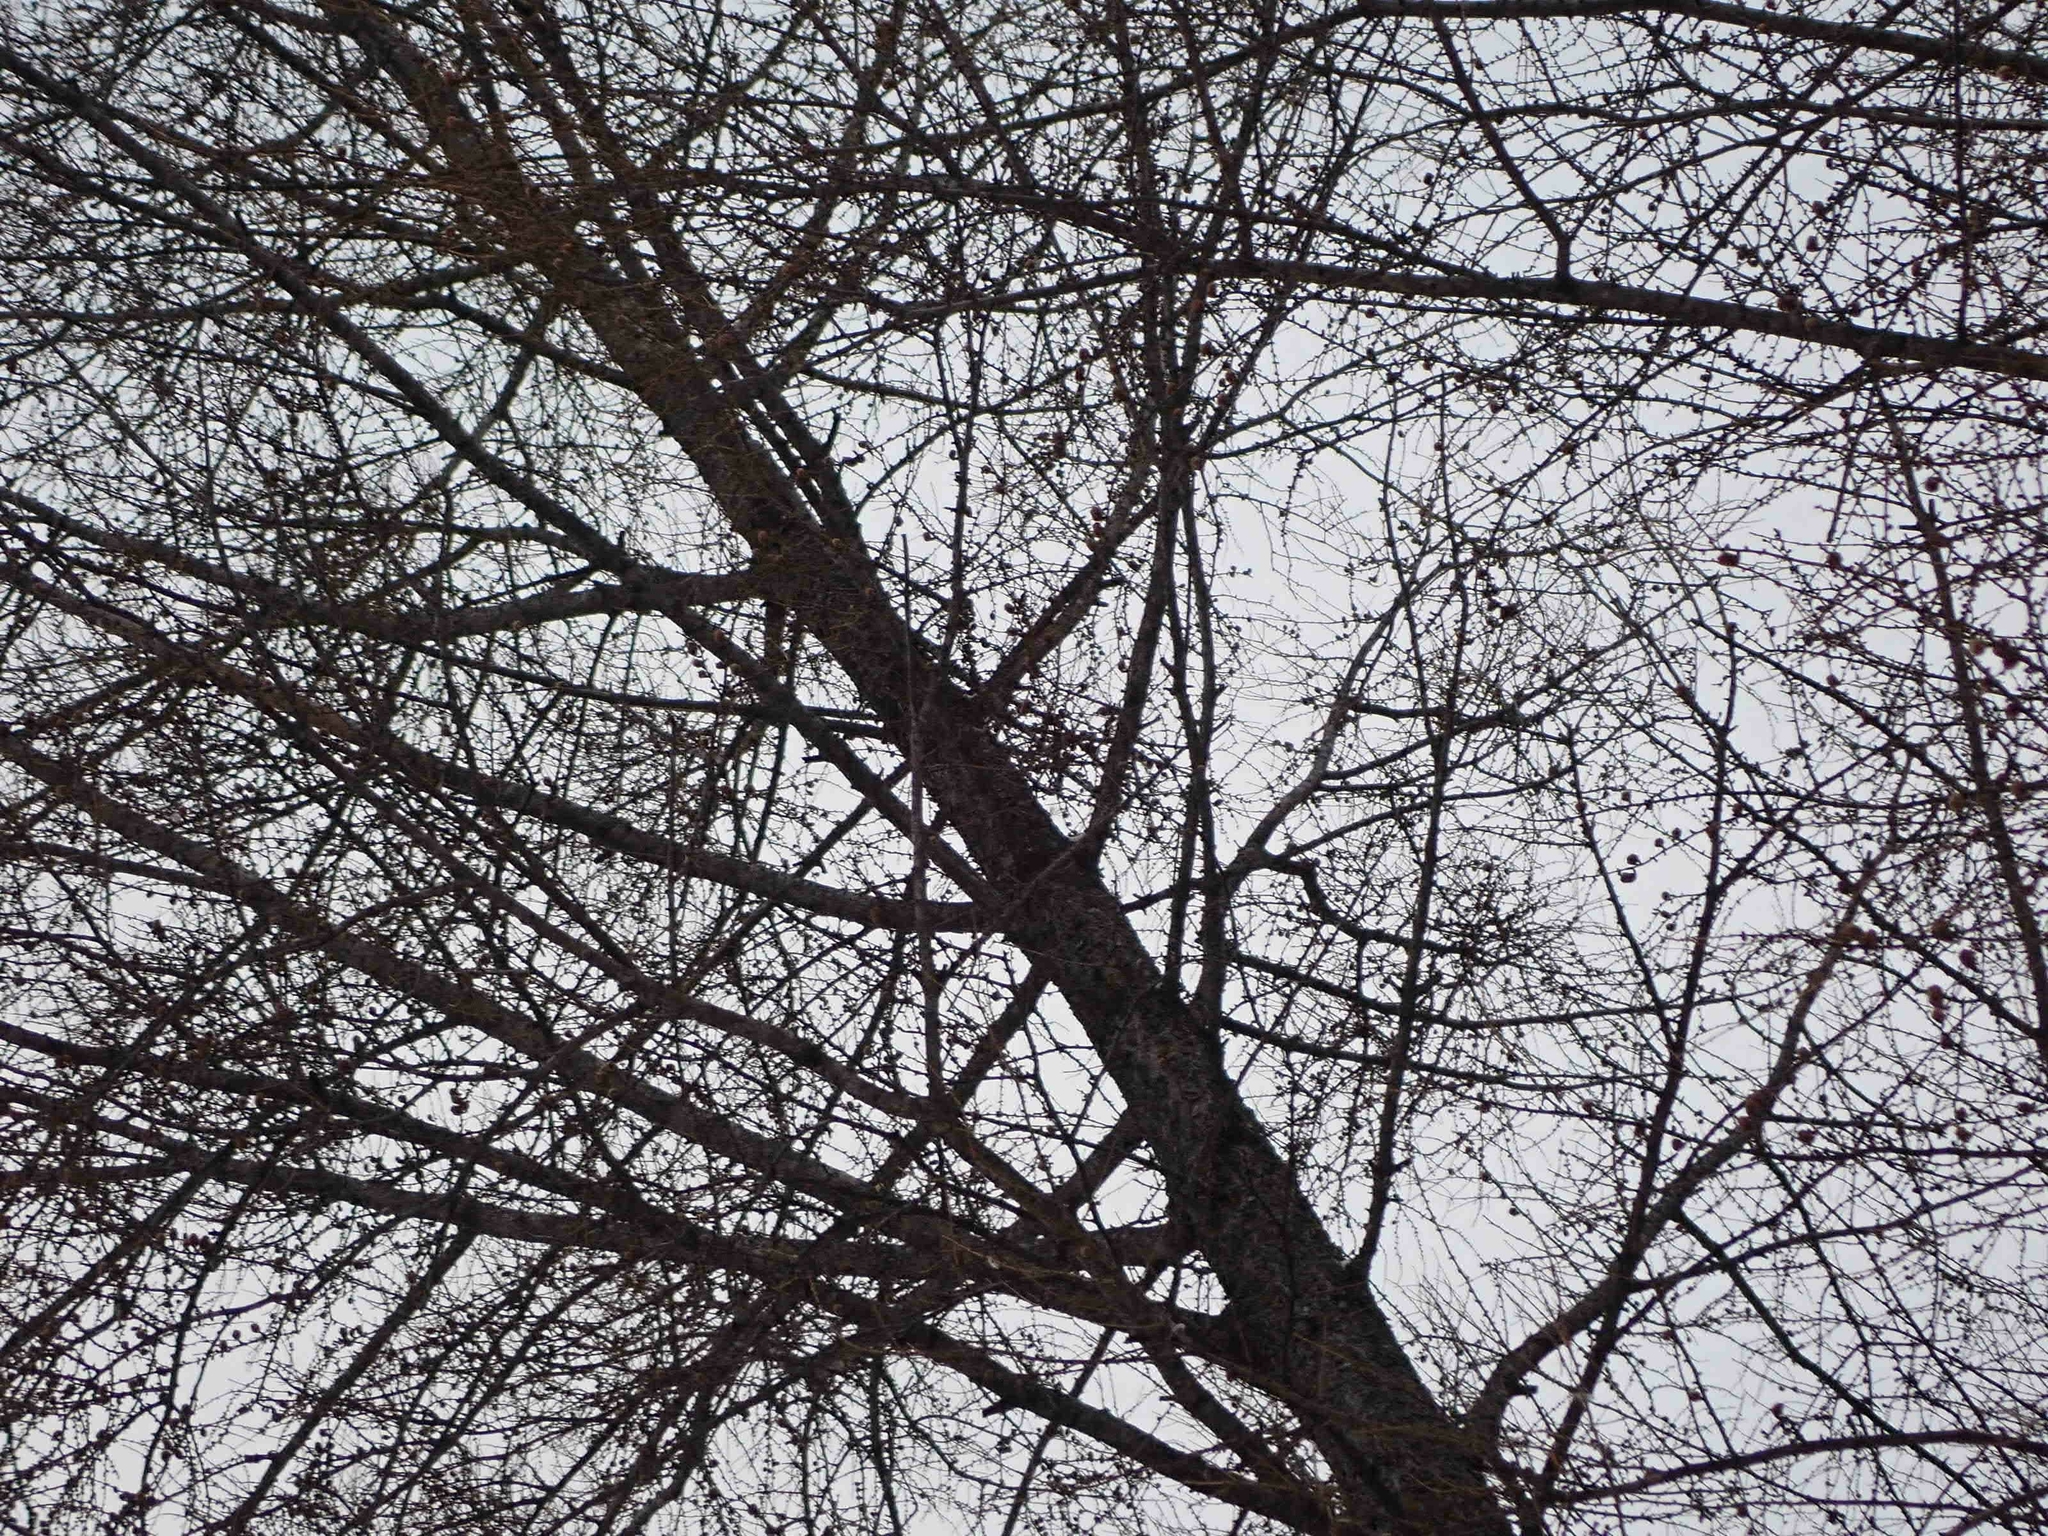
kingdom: Plantae
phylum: Tracheophyta
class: Pinopsida
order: Pinales
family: Pinaceae
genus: Larix
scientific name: Larix laricina
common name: American larch
